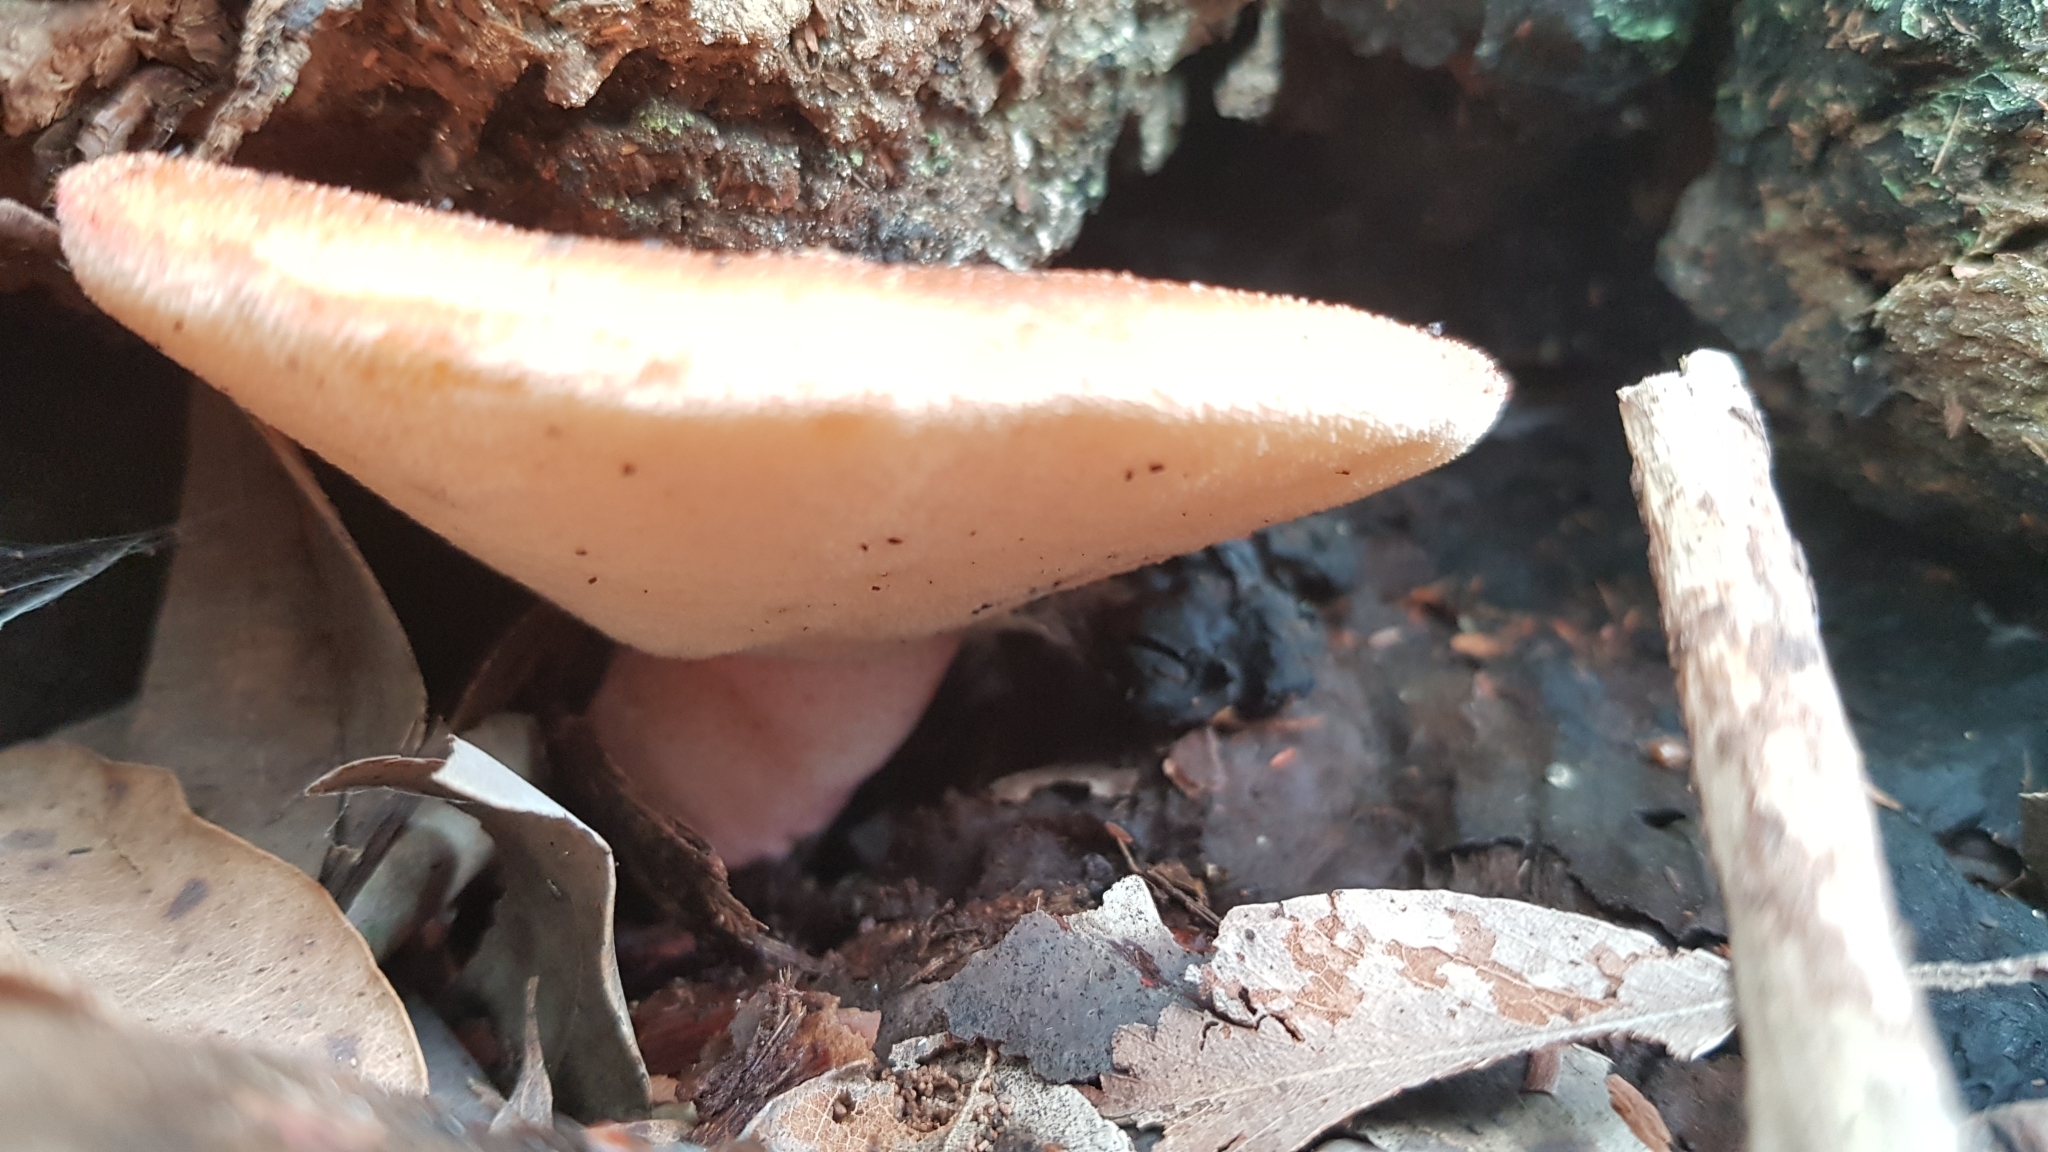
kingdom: Fungi
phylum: Basidiomycota
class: Agaricomycetes
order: Agaricales
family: Fistulinaceae
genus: Fistulina
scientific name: Fistulina spiculifera
